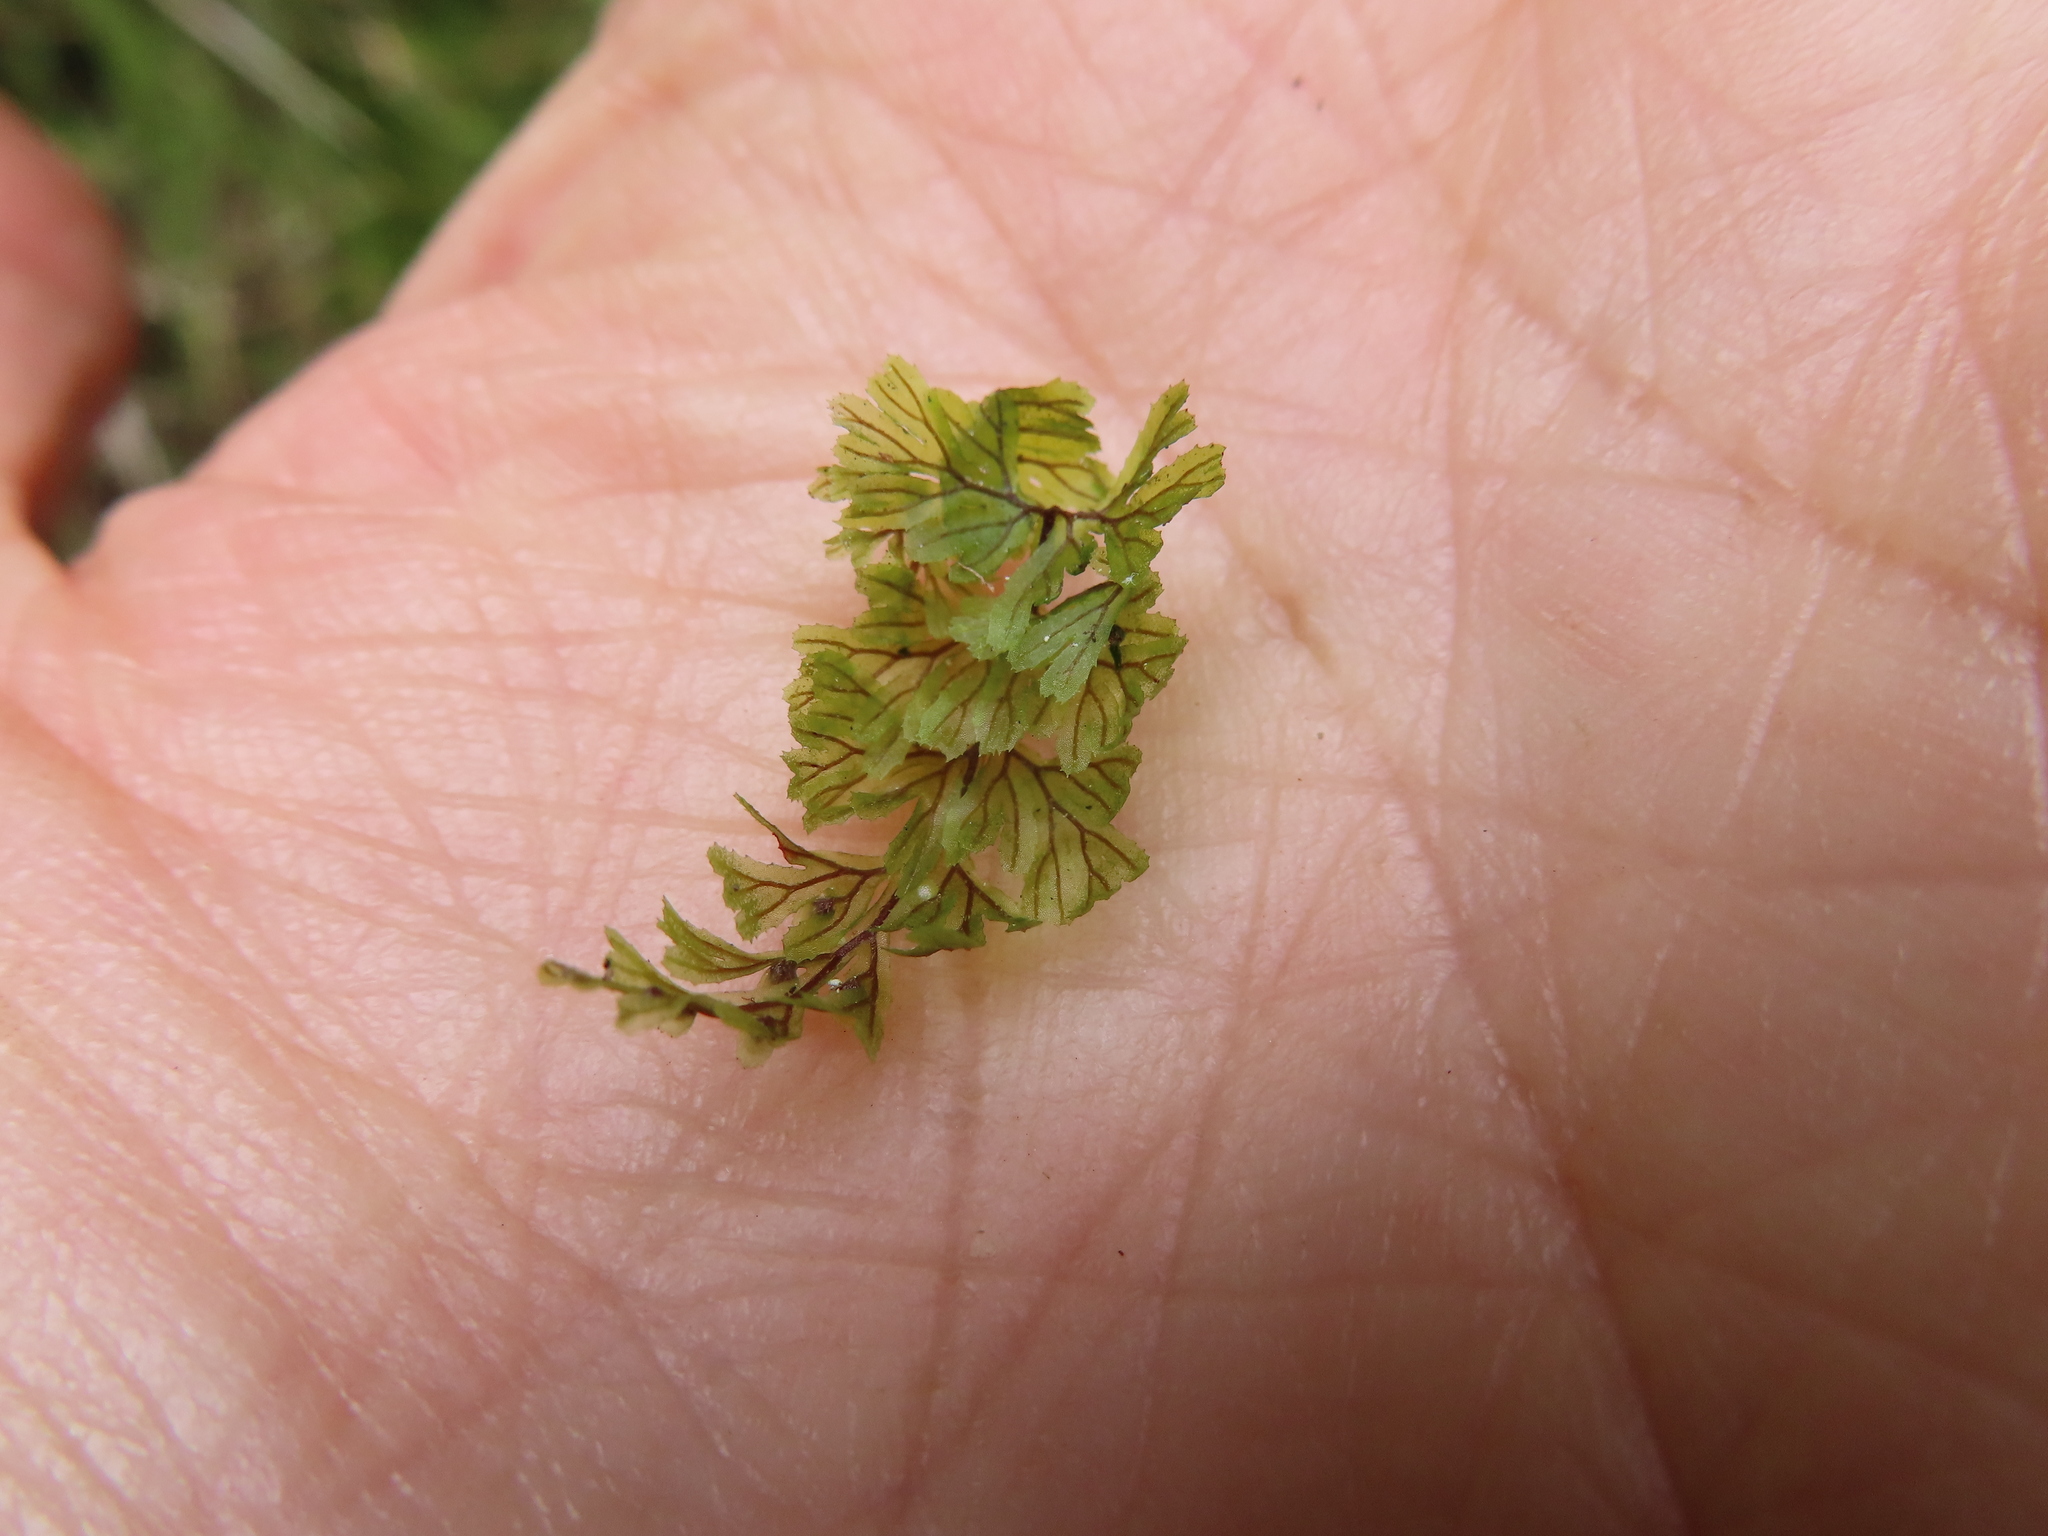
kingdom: Plantae
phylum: Tracheophyta
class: Polypodiopsida
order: Hymenophyllales
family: Hymenophyllaceae
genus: Hymenophyllum
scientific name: Hymenophyllum tunbrigense
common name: Tunbridge filmy fern
